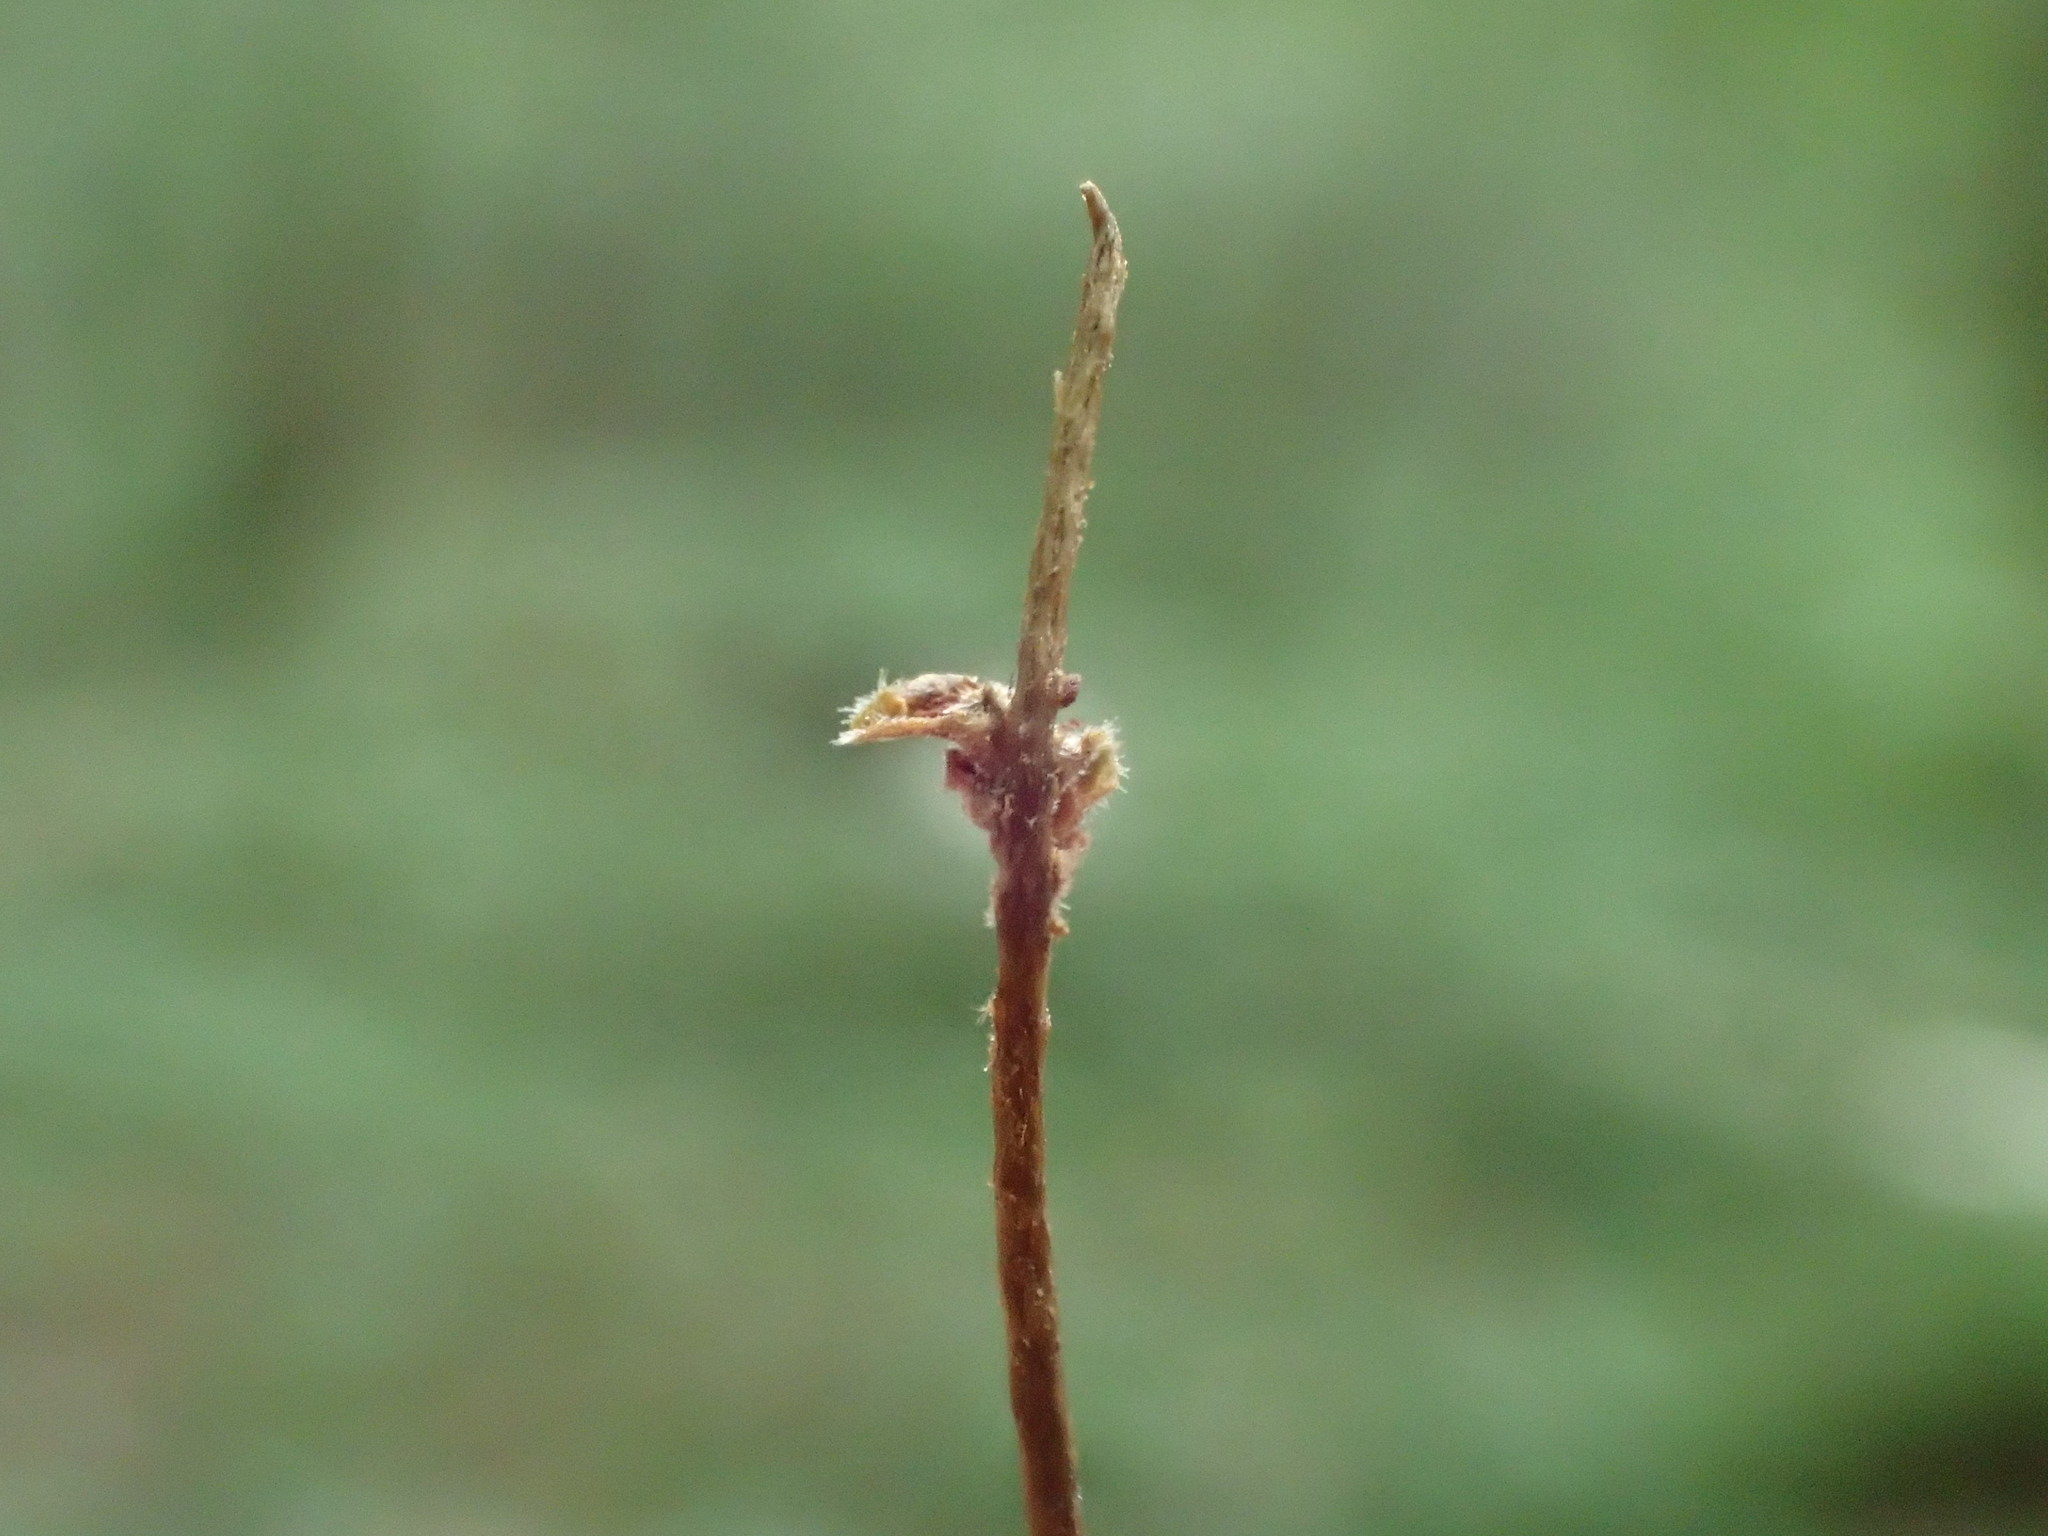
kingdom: Animalia
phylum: Arthropoda
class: Insecta
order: Diptera
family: Cecidomyiidae
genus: Oligotrophus
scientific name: Oligotrophus skuhravae
